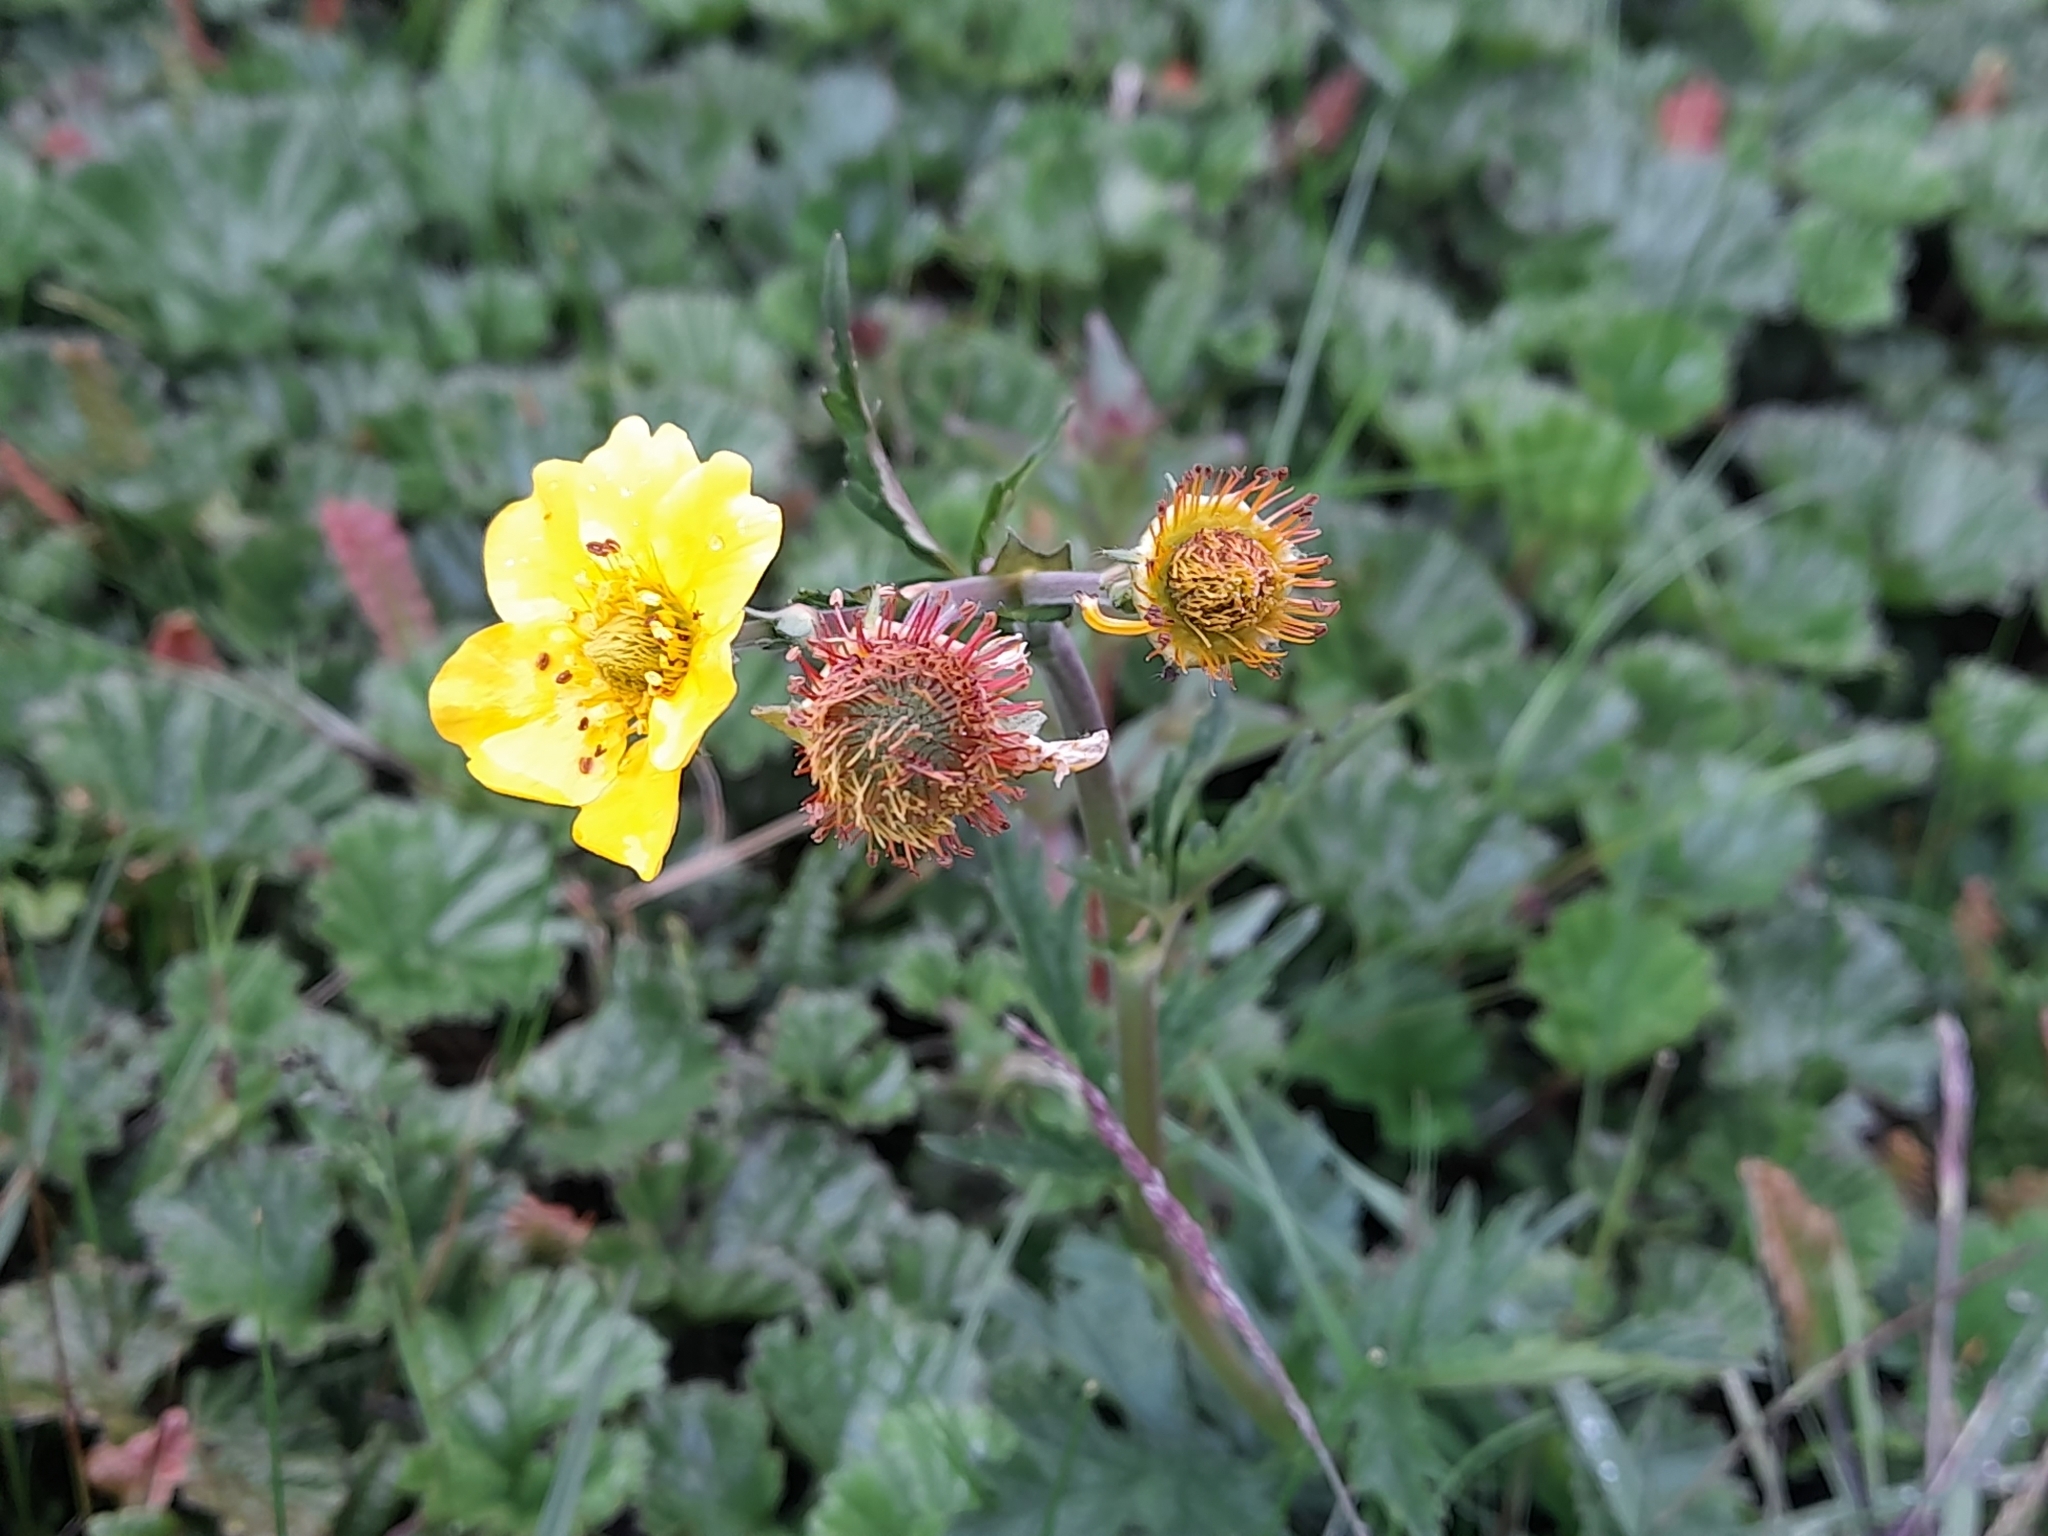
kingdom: Plantae
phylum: Tracheophyta
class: Magnoliopsida
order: Rosales
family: Rosaceae
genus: Geum
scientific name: Geum magellanicum
